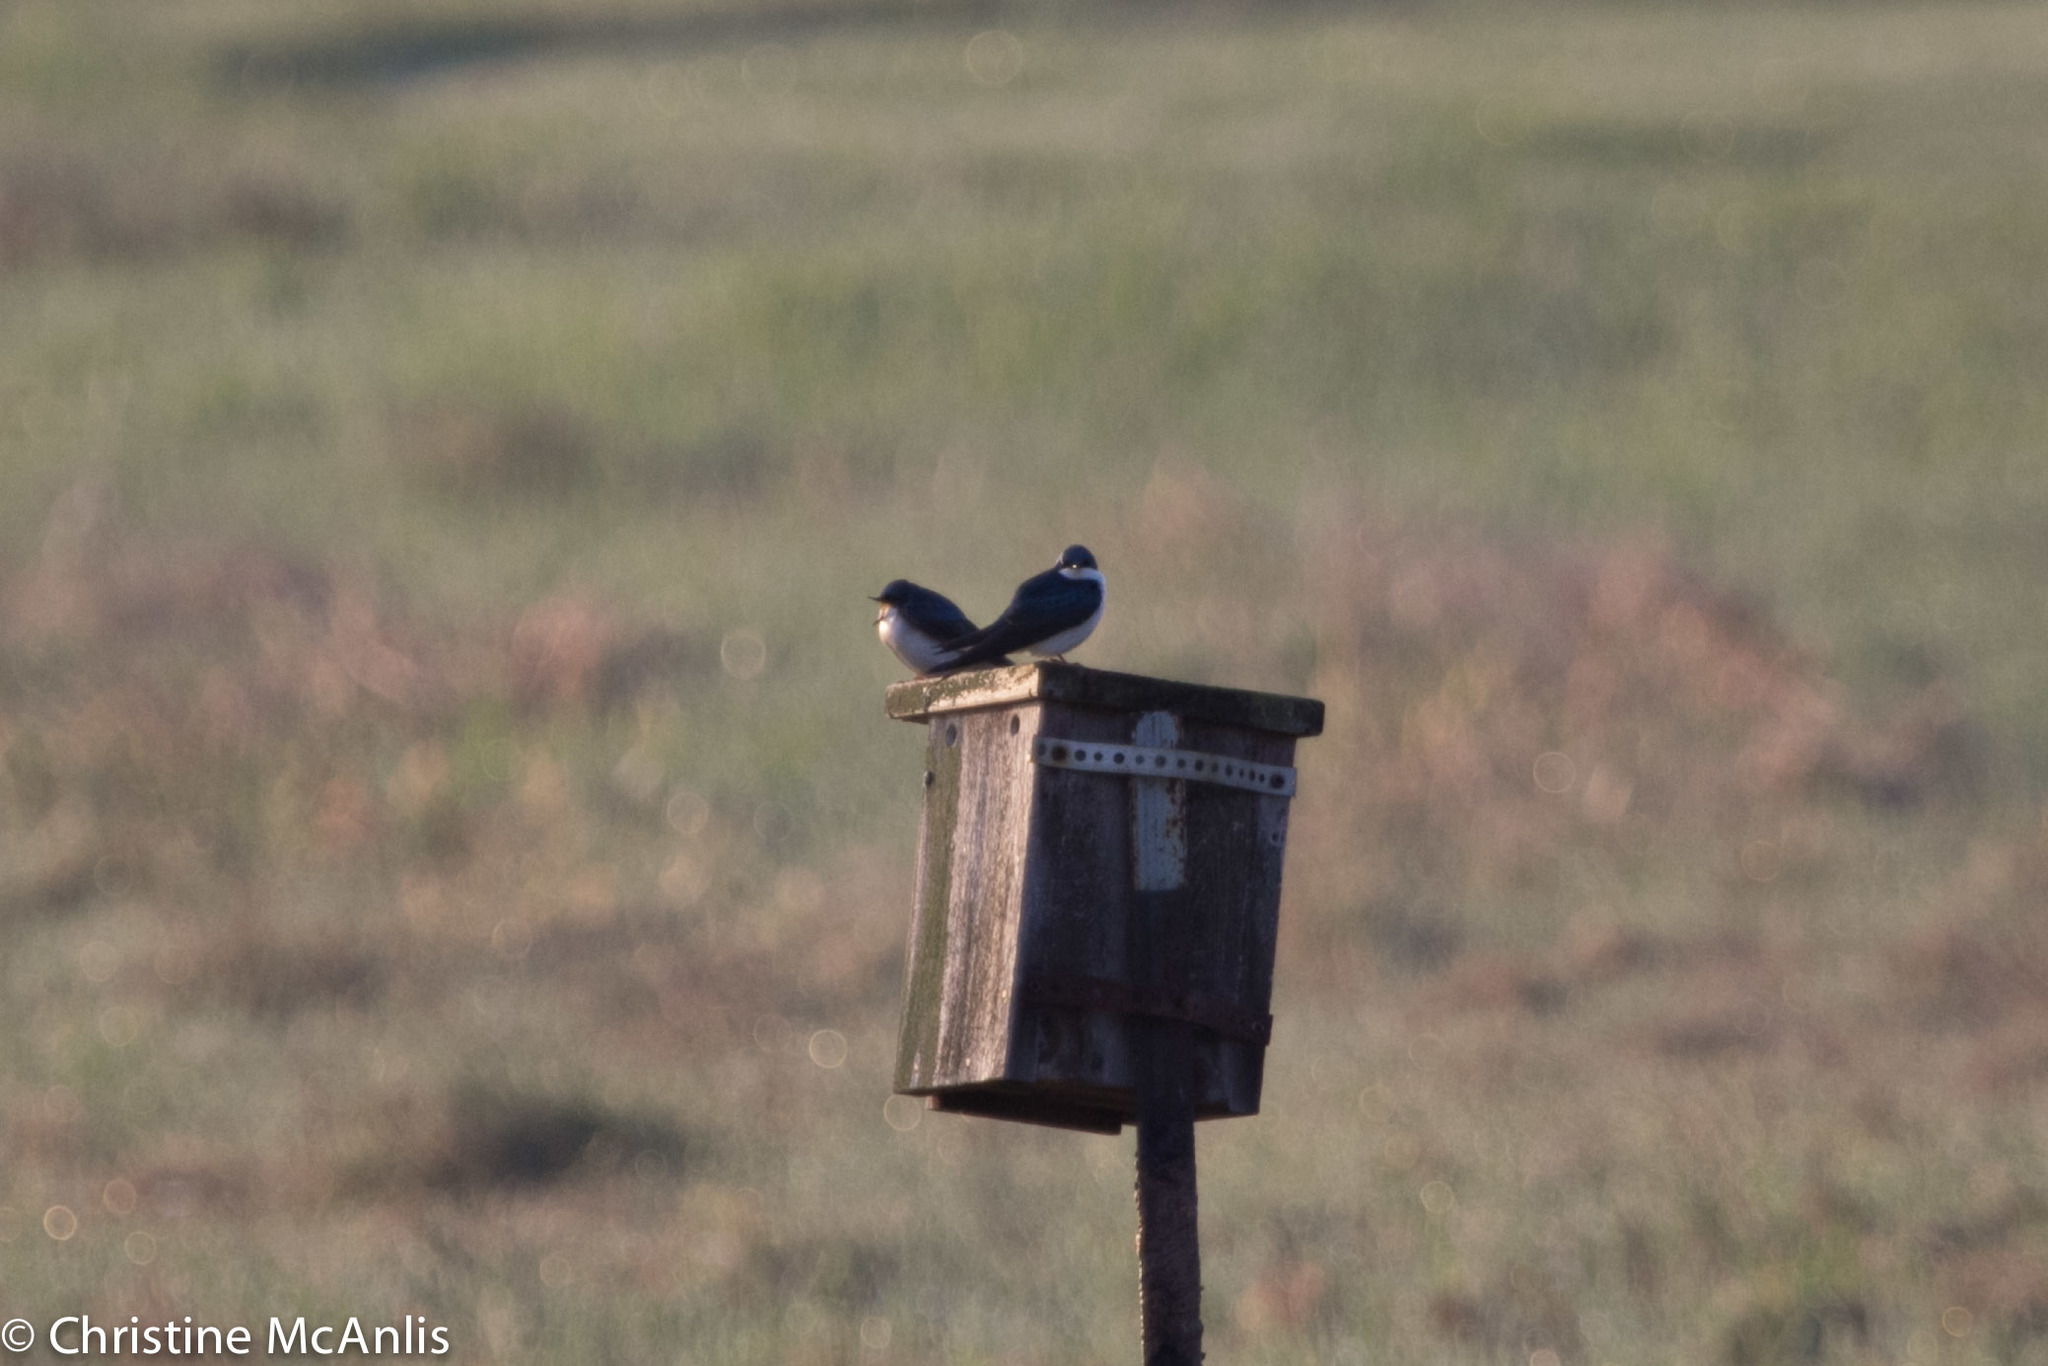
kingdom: Animalia
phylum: Chordata
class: Aves
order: Passeriformes
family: Hirundinidae
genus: Tachycineta
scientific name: Tachycineta bicolor
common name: Tree swallow
